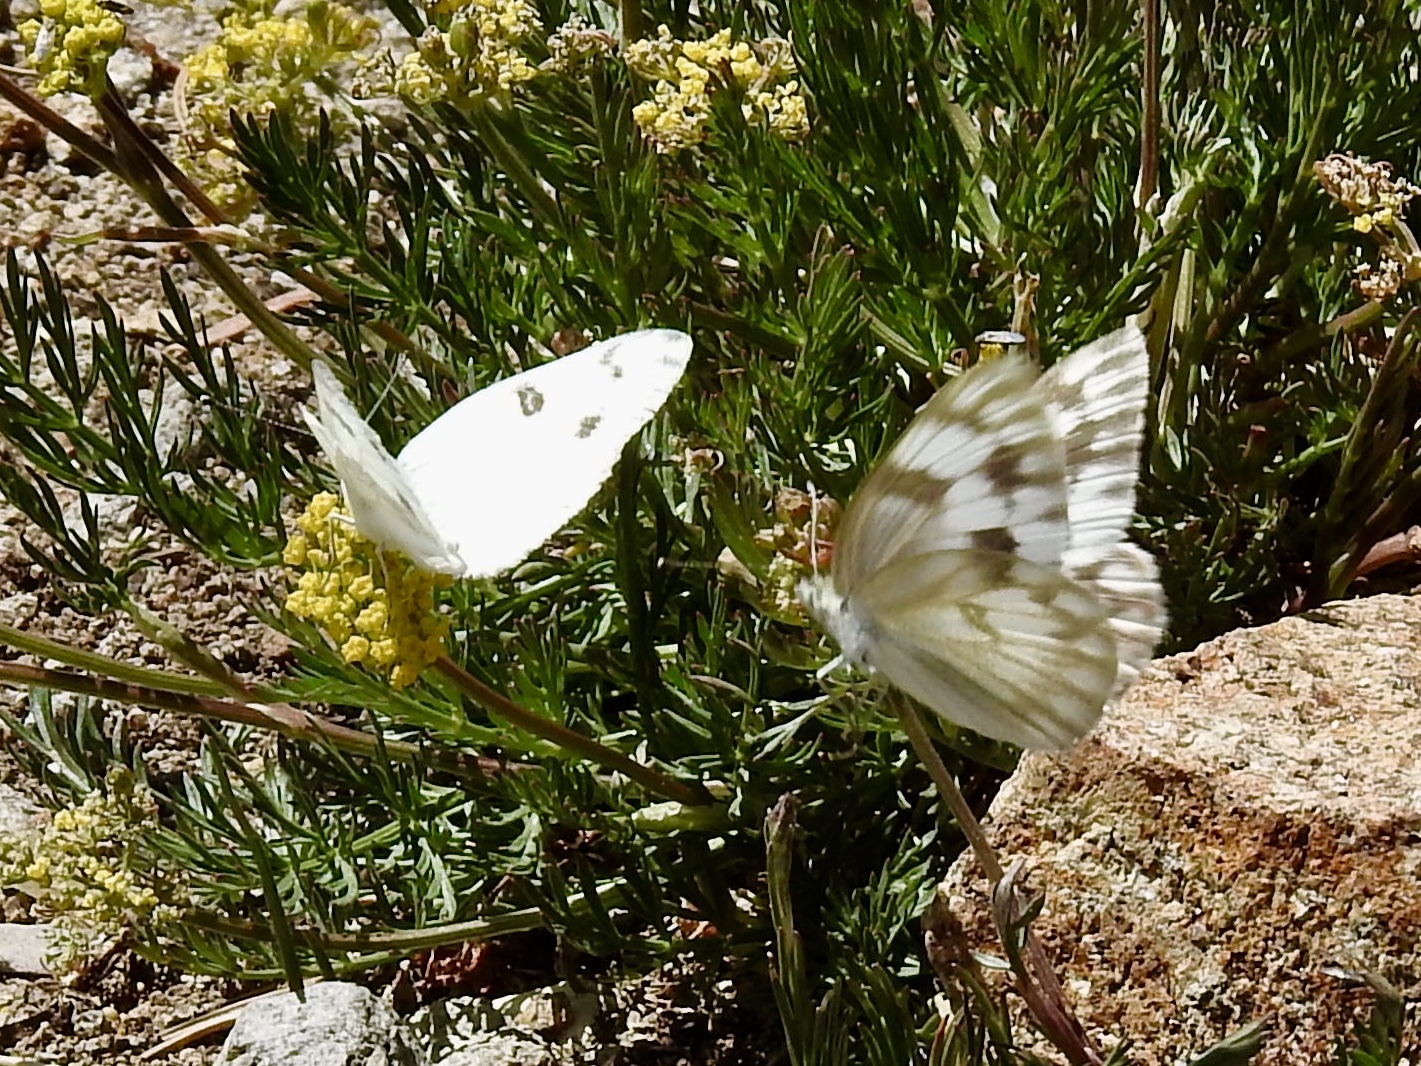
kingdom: Animalia
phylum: Arthropoda
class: Insecta
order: Lepidoptera
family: Pieridae
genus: Pontia
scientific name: Pontia protodice
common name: Checkered white
